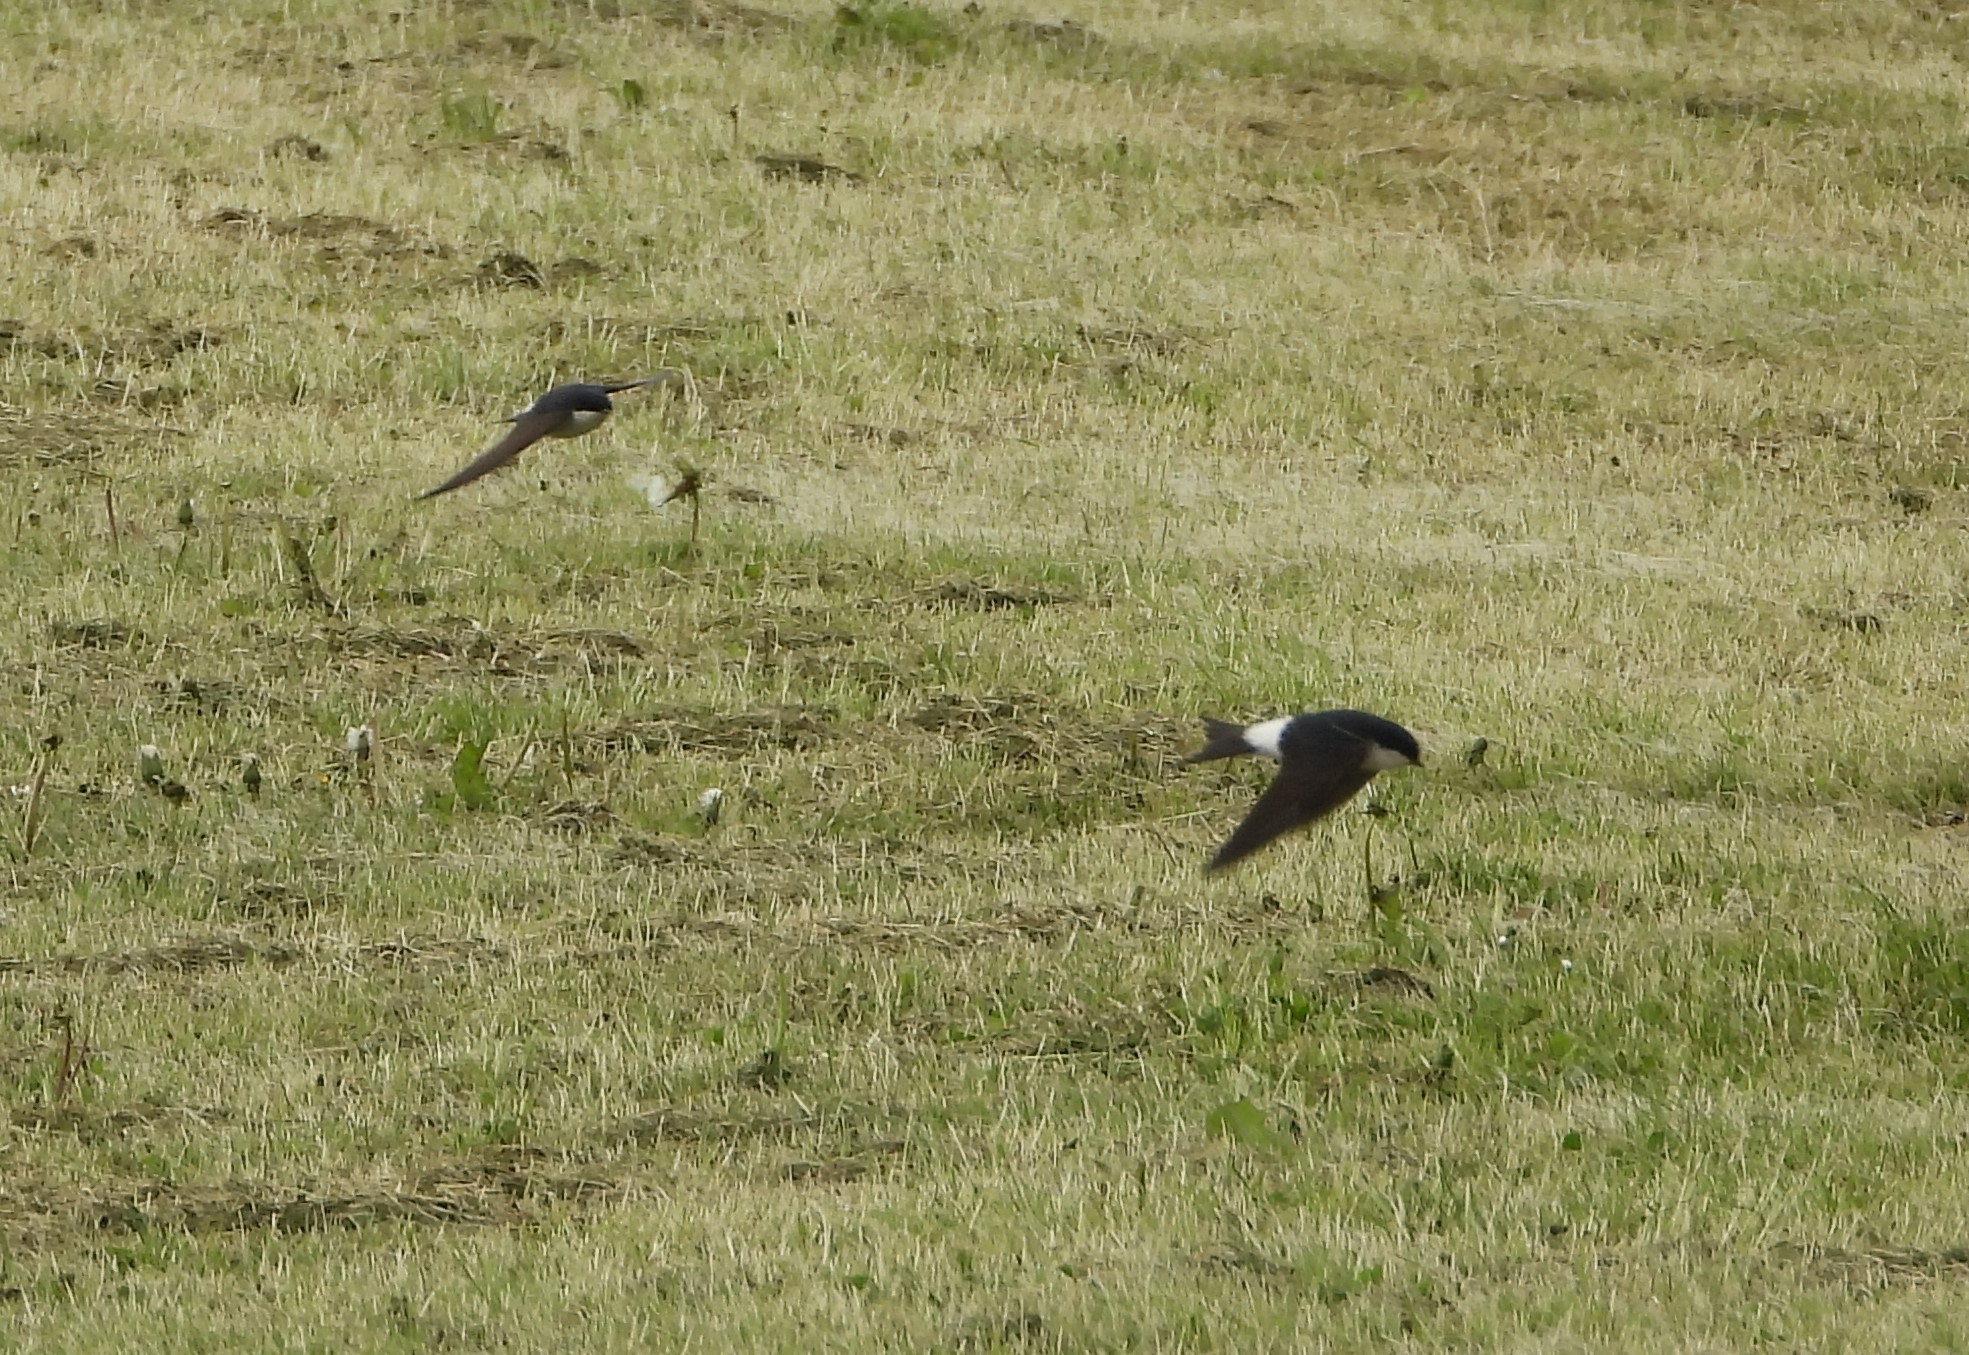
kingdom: Animalia
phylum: Chordata
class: Aves
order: Passeriformes
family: Hirundinidae
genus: Delichon
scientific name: Delichon urbicum
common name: Common house martin
